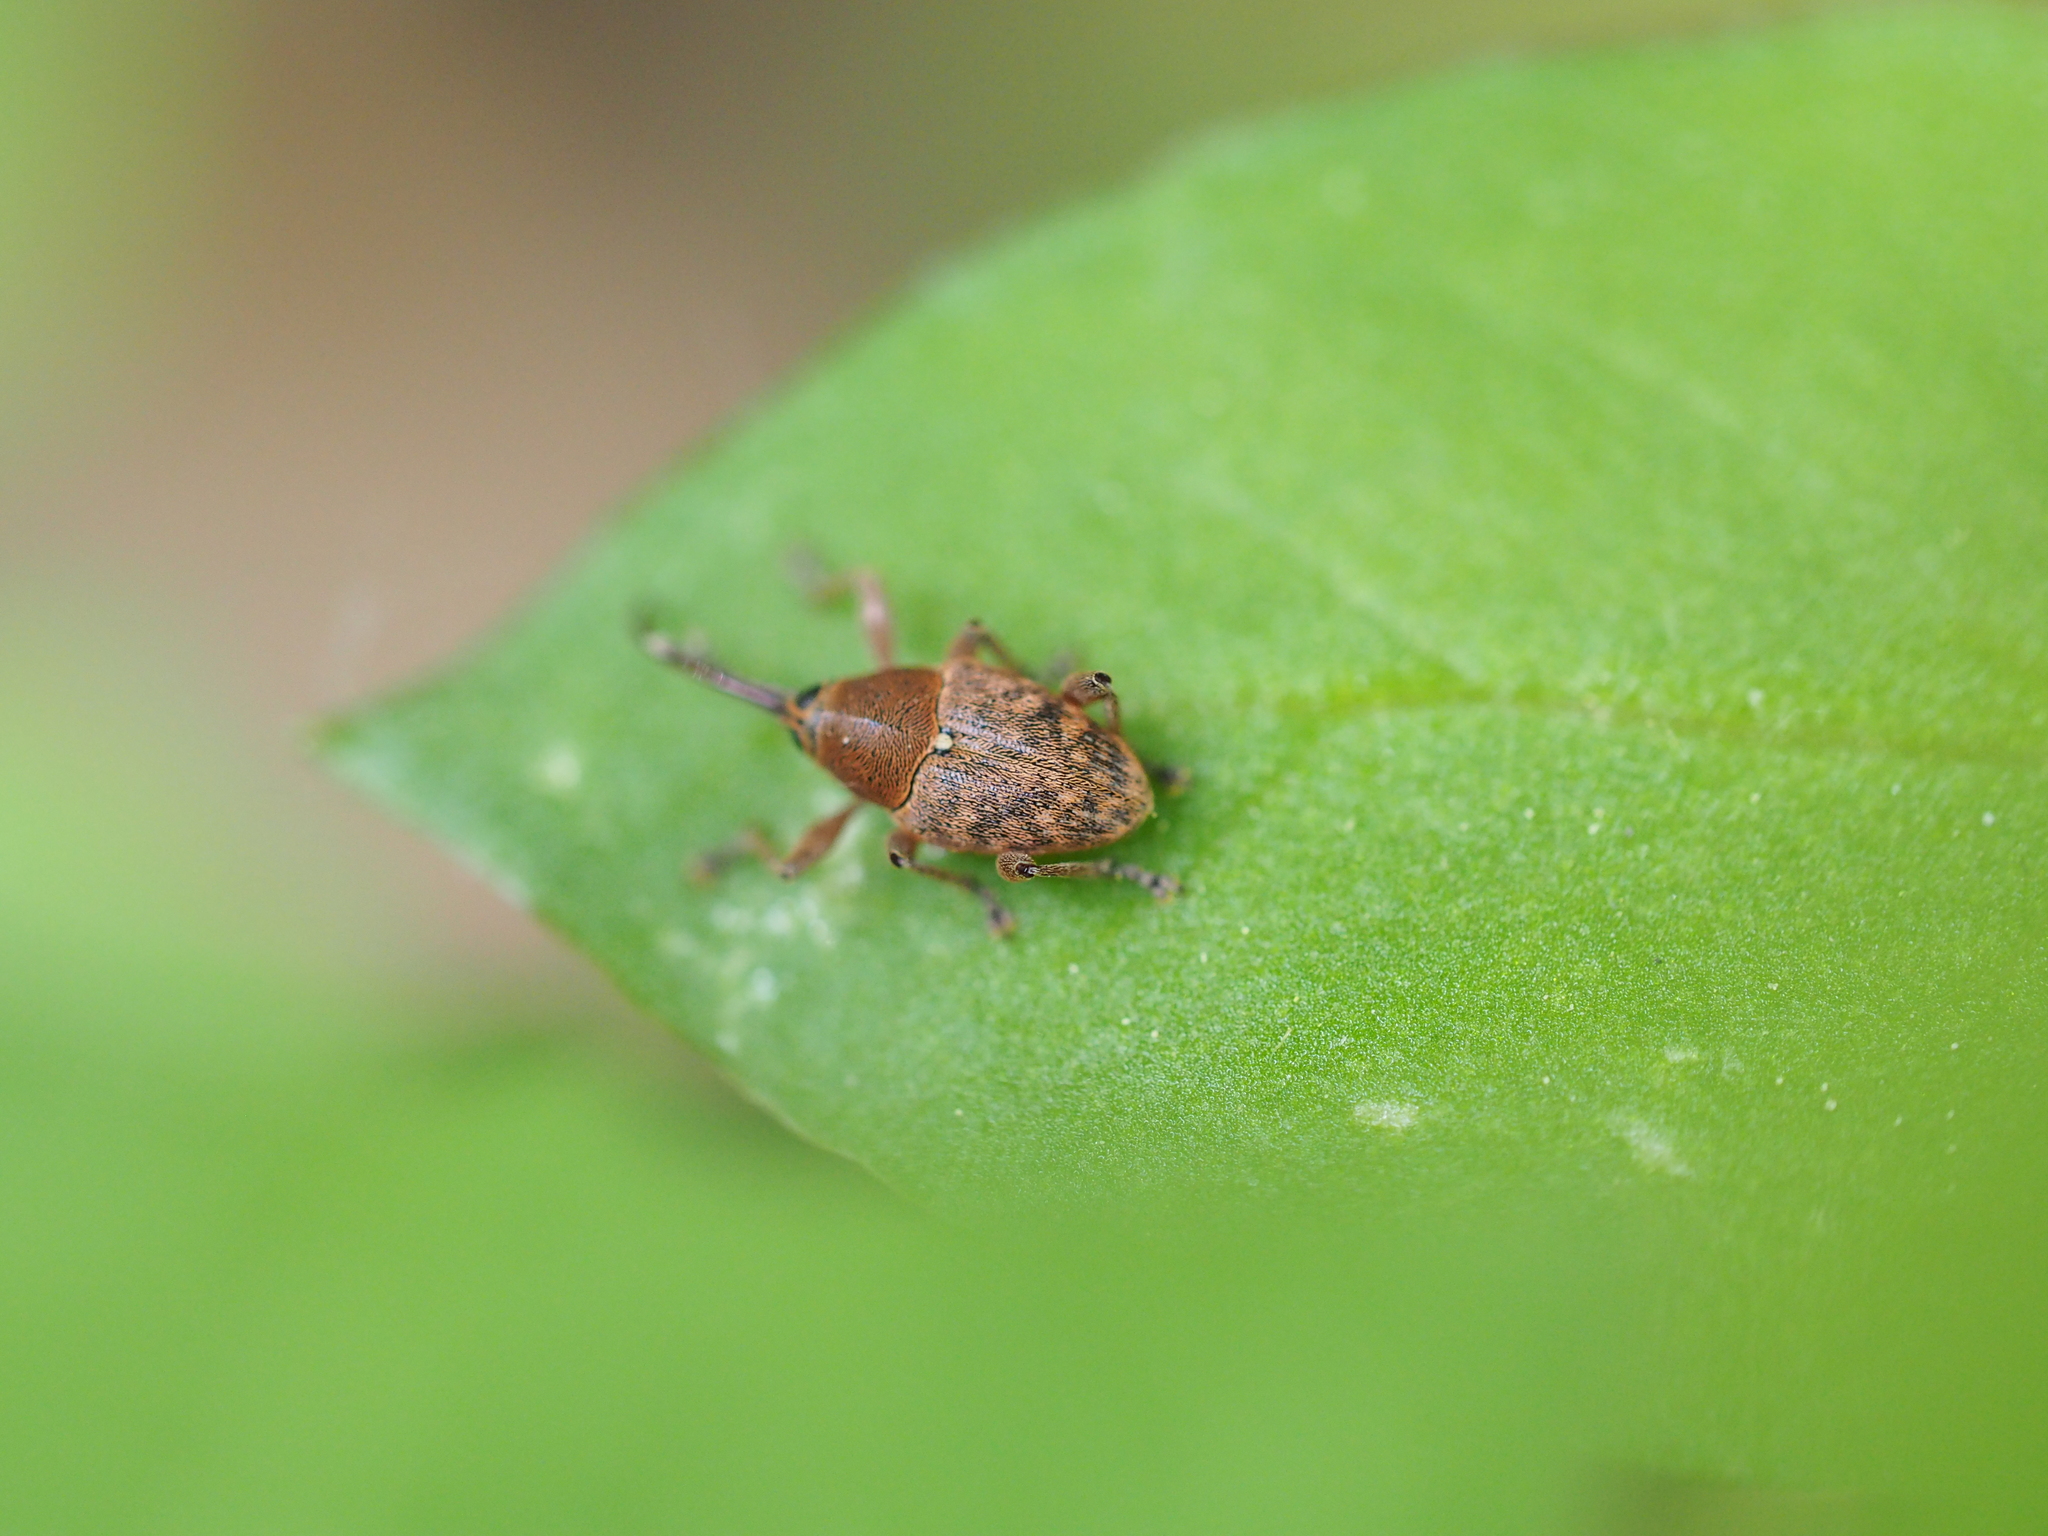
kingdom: Animalia
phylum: Arthropoda
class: Insecta
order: Coleoptera
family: Curculionidae
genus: Curculio
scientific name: Curculio glandium
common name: Acorn weevil
